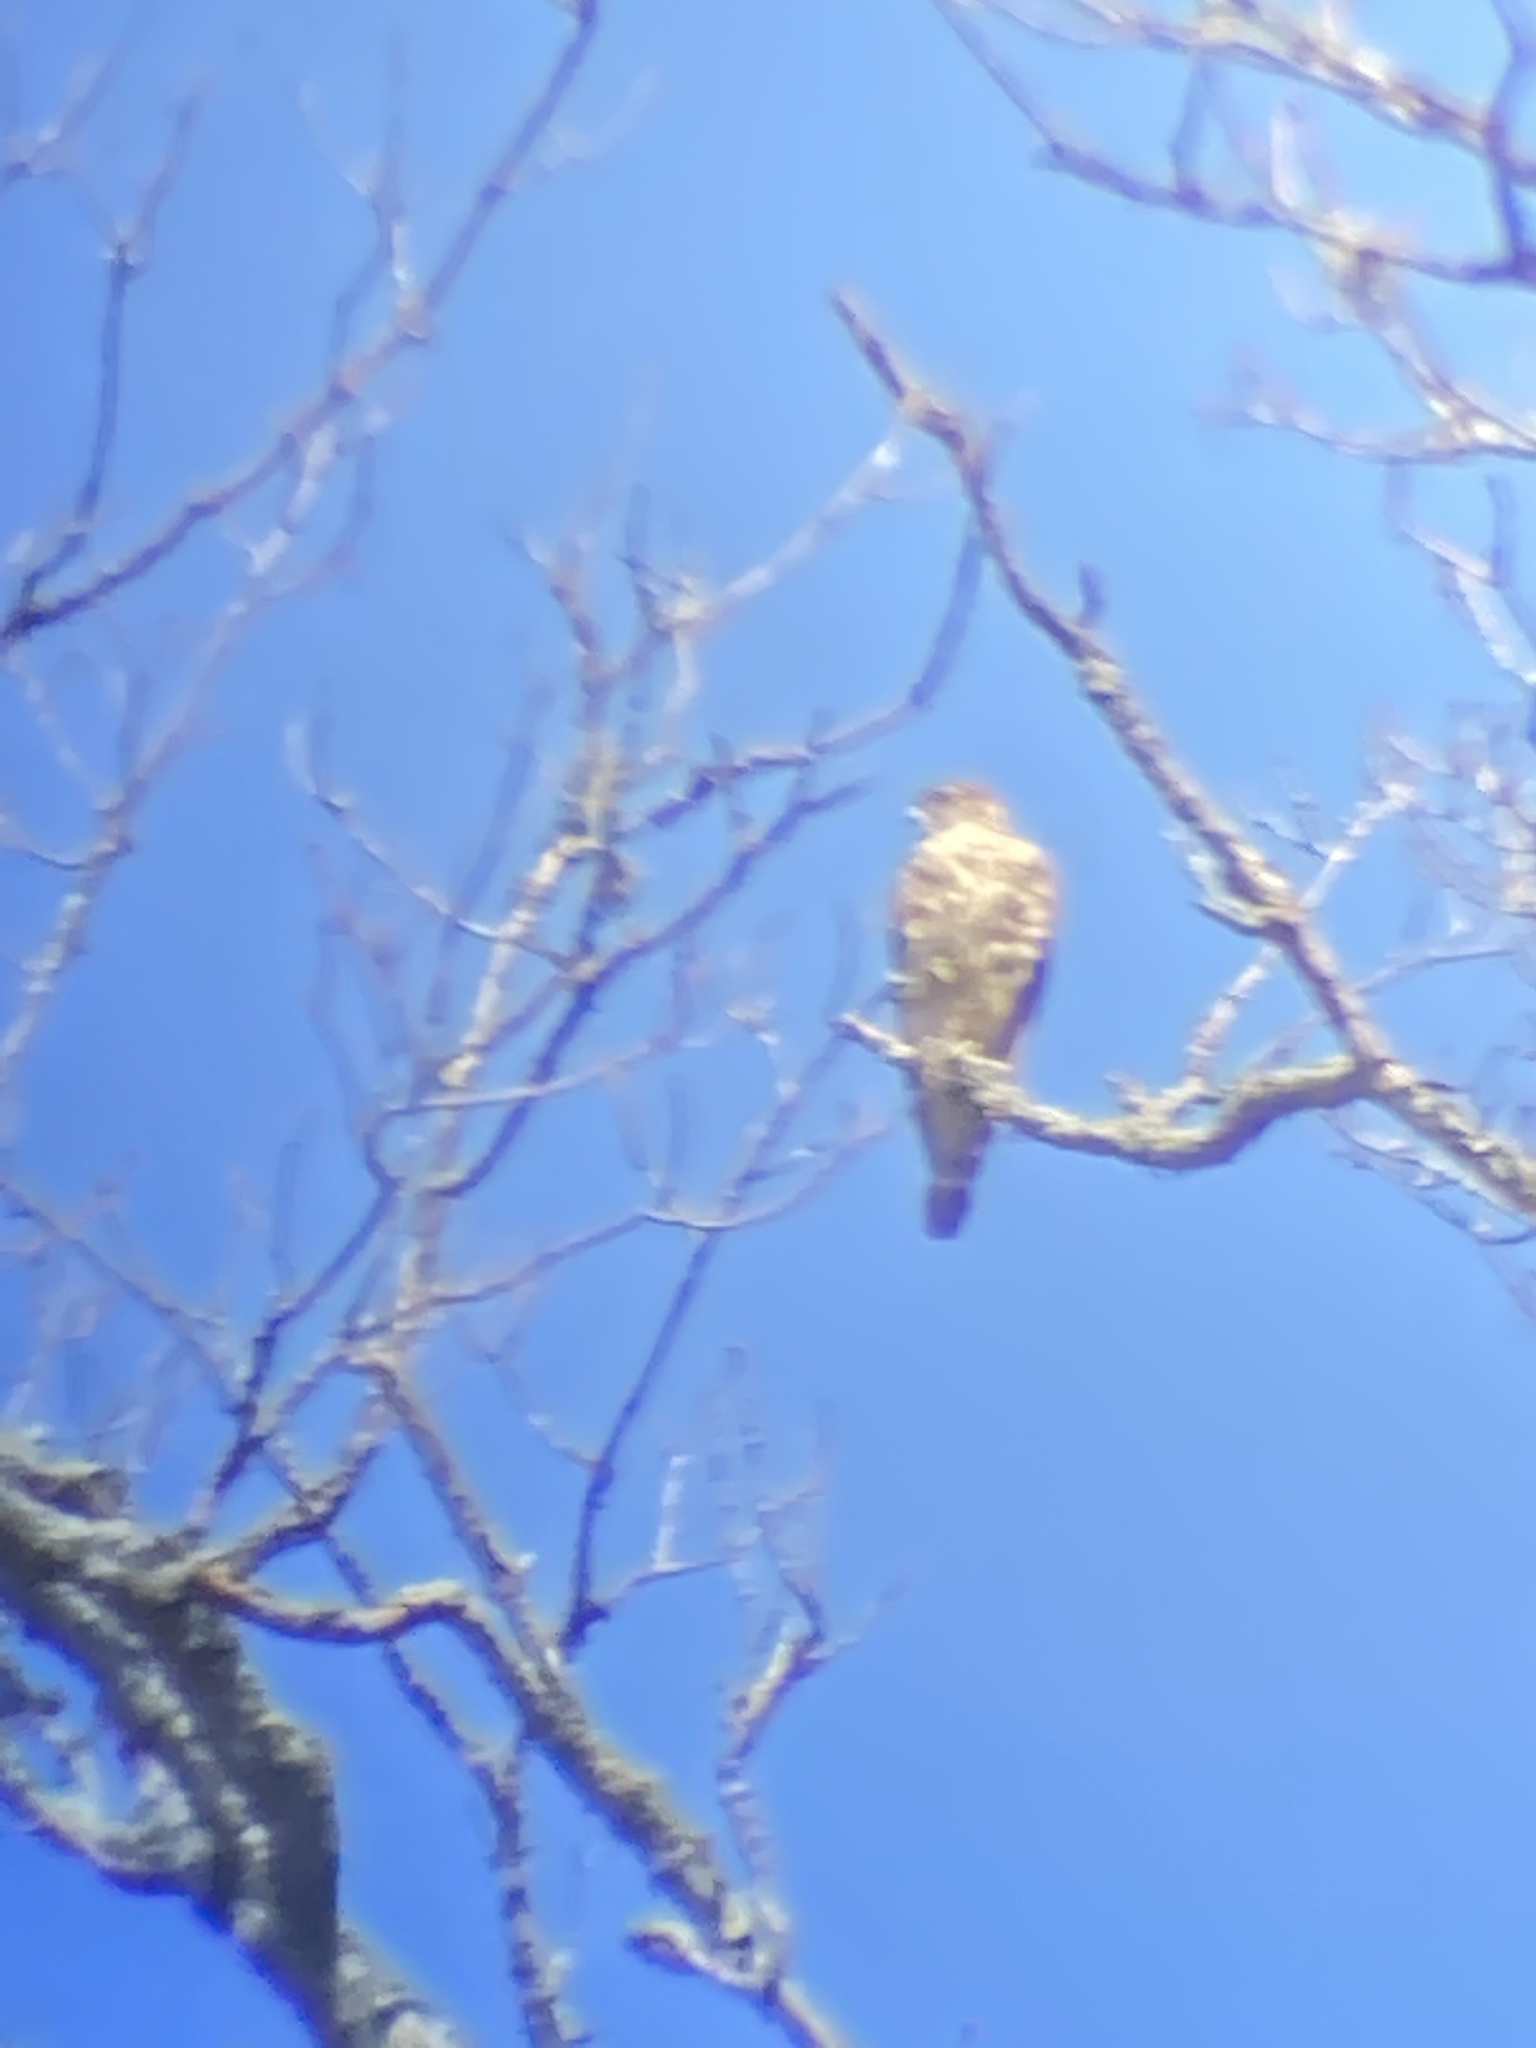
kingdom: Animalia
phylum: Chordata
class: Aves
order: Falconiformes
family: Falconidae
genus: Falco
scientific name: Falco columbarius
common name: Merlin
